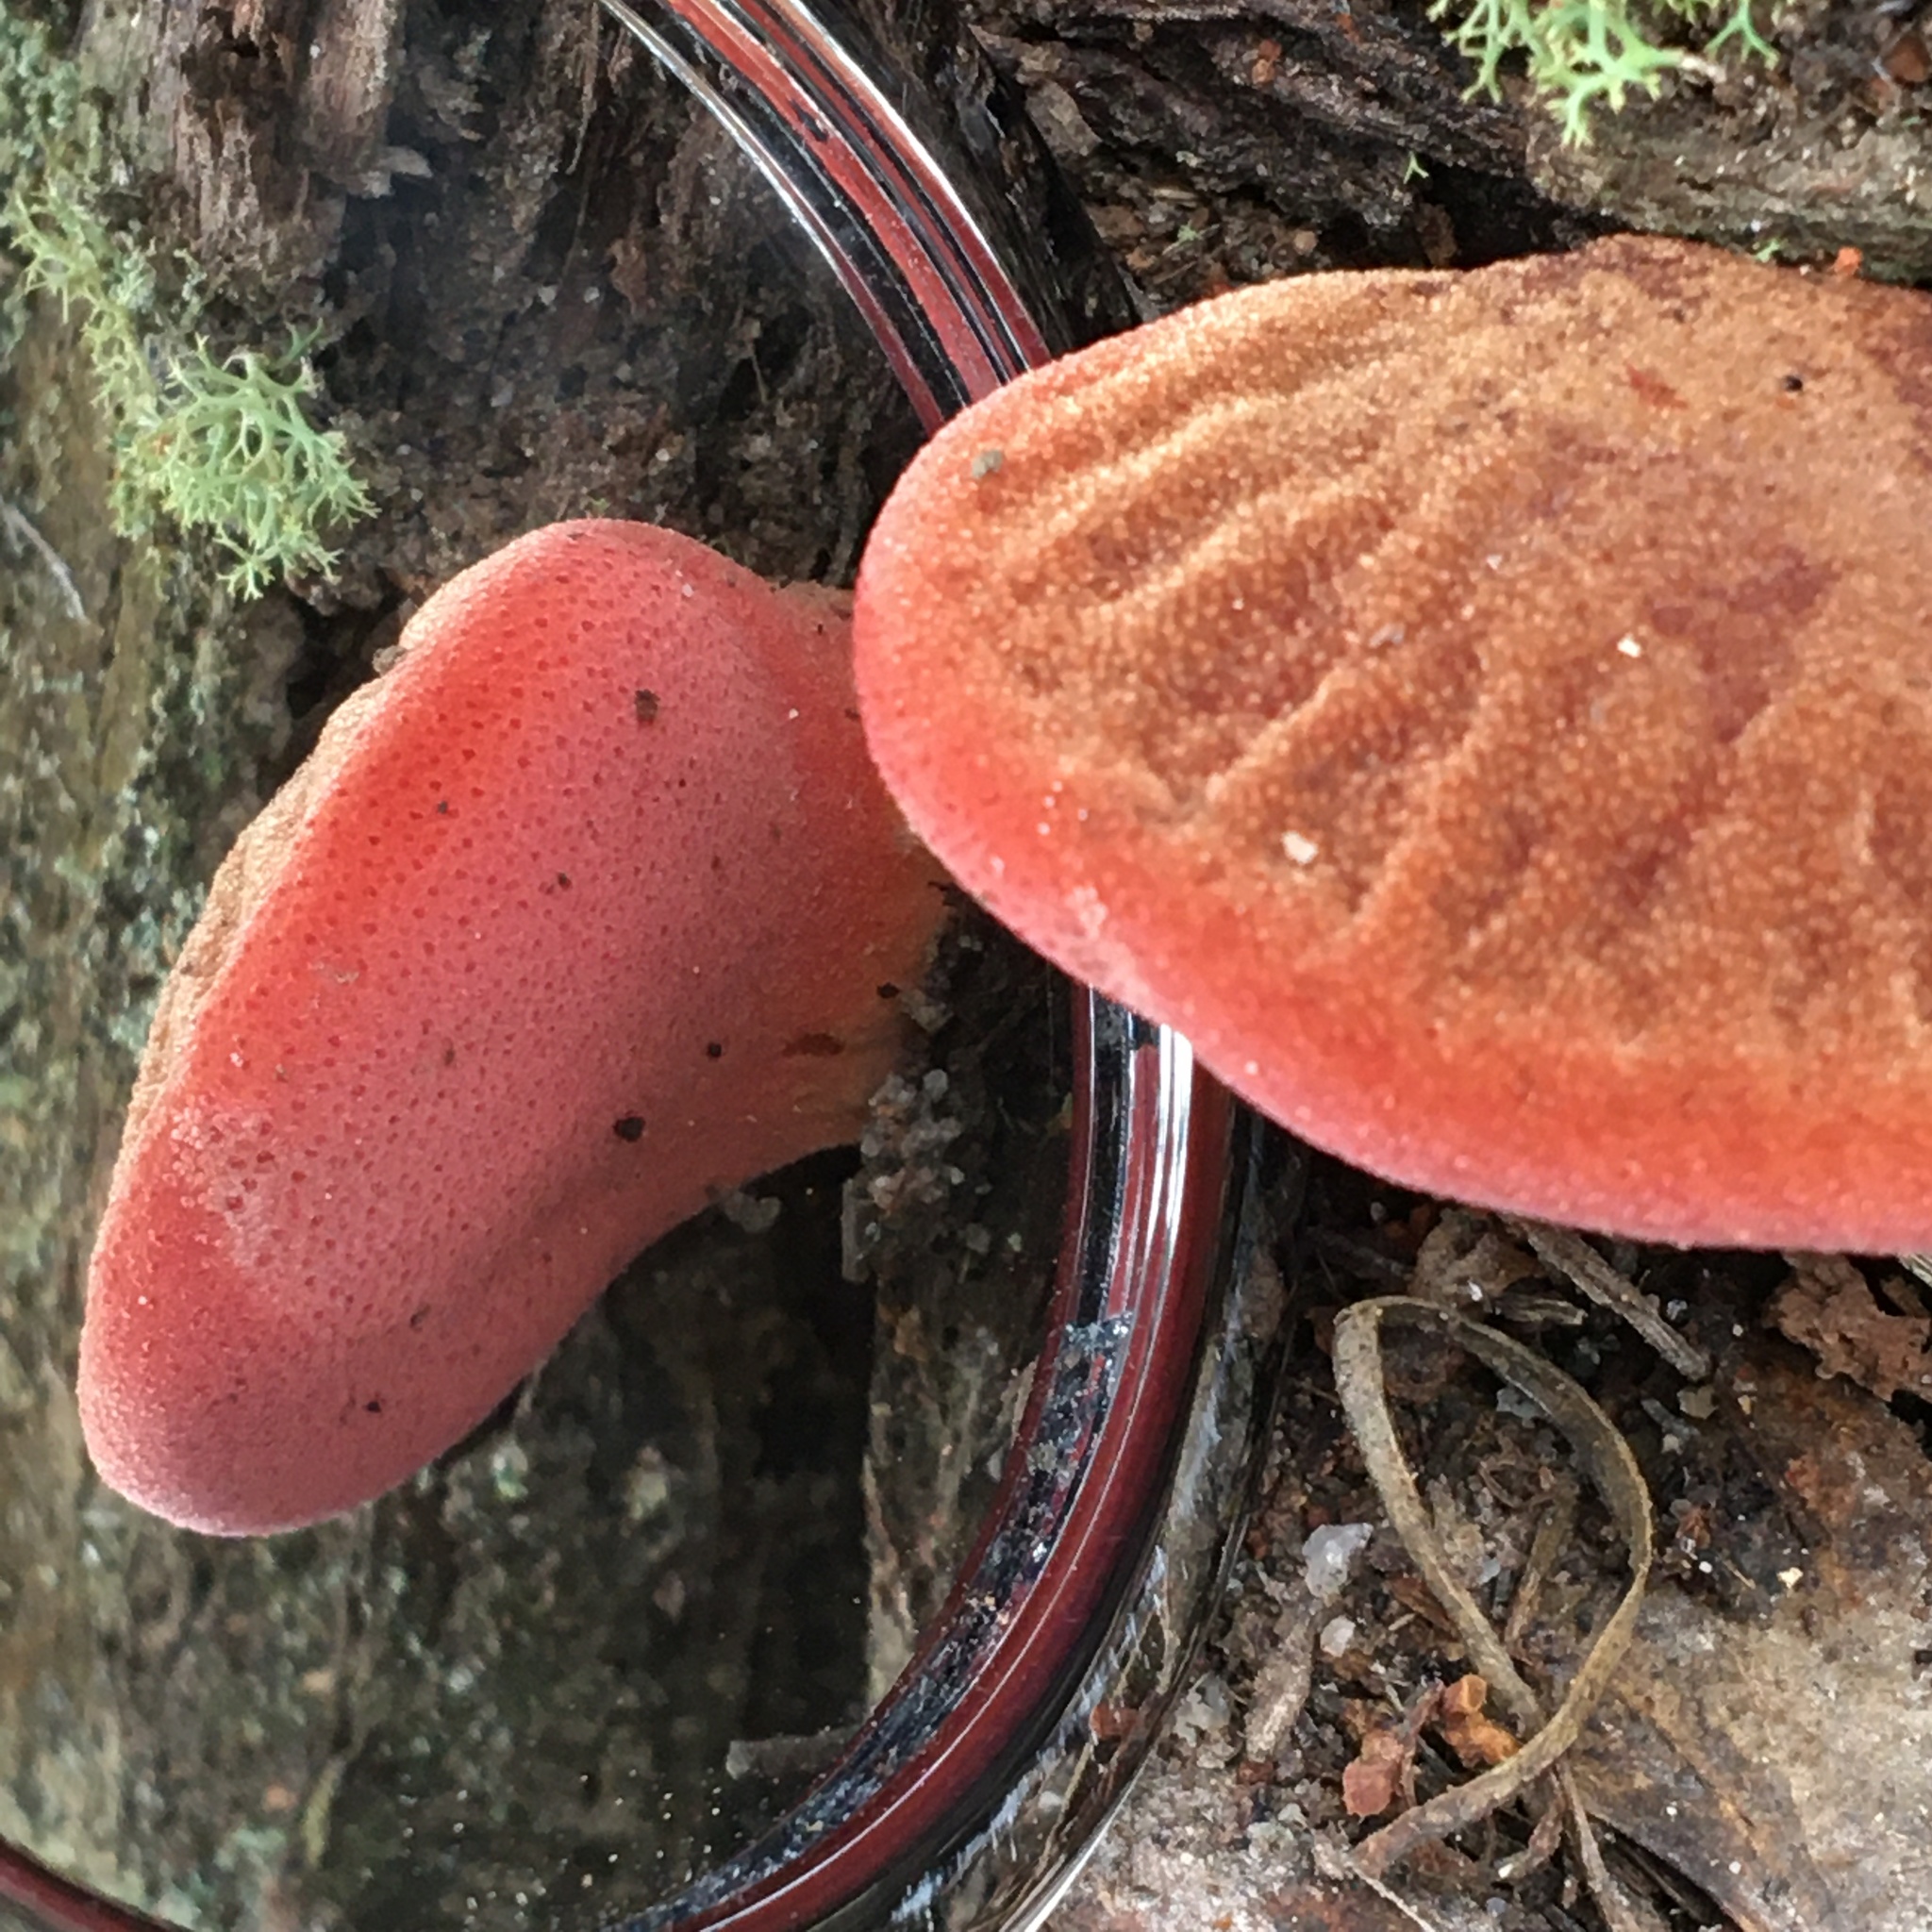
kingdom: Fungi
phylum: Basidiomycota
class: Agaricomycetes
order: Agaricales
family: Fistulinaceae
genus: Fistulina
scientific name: Fistulina spiculifera
